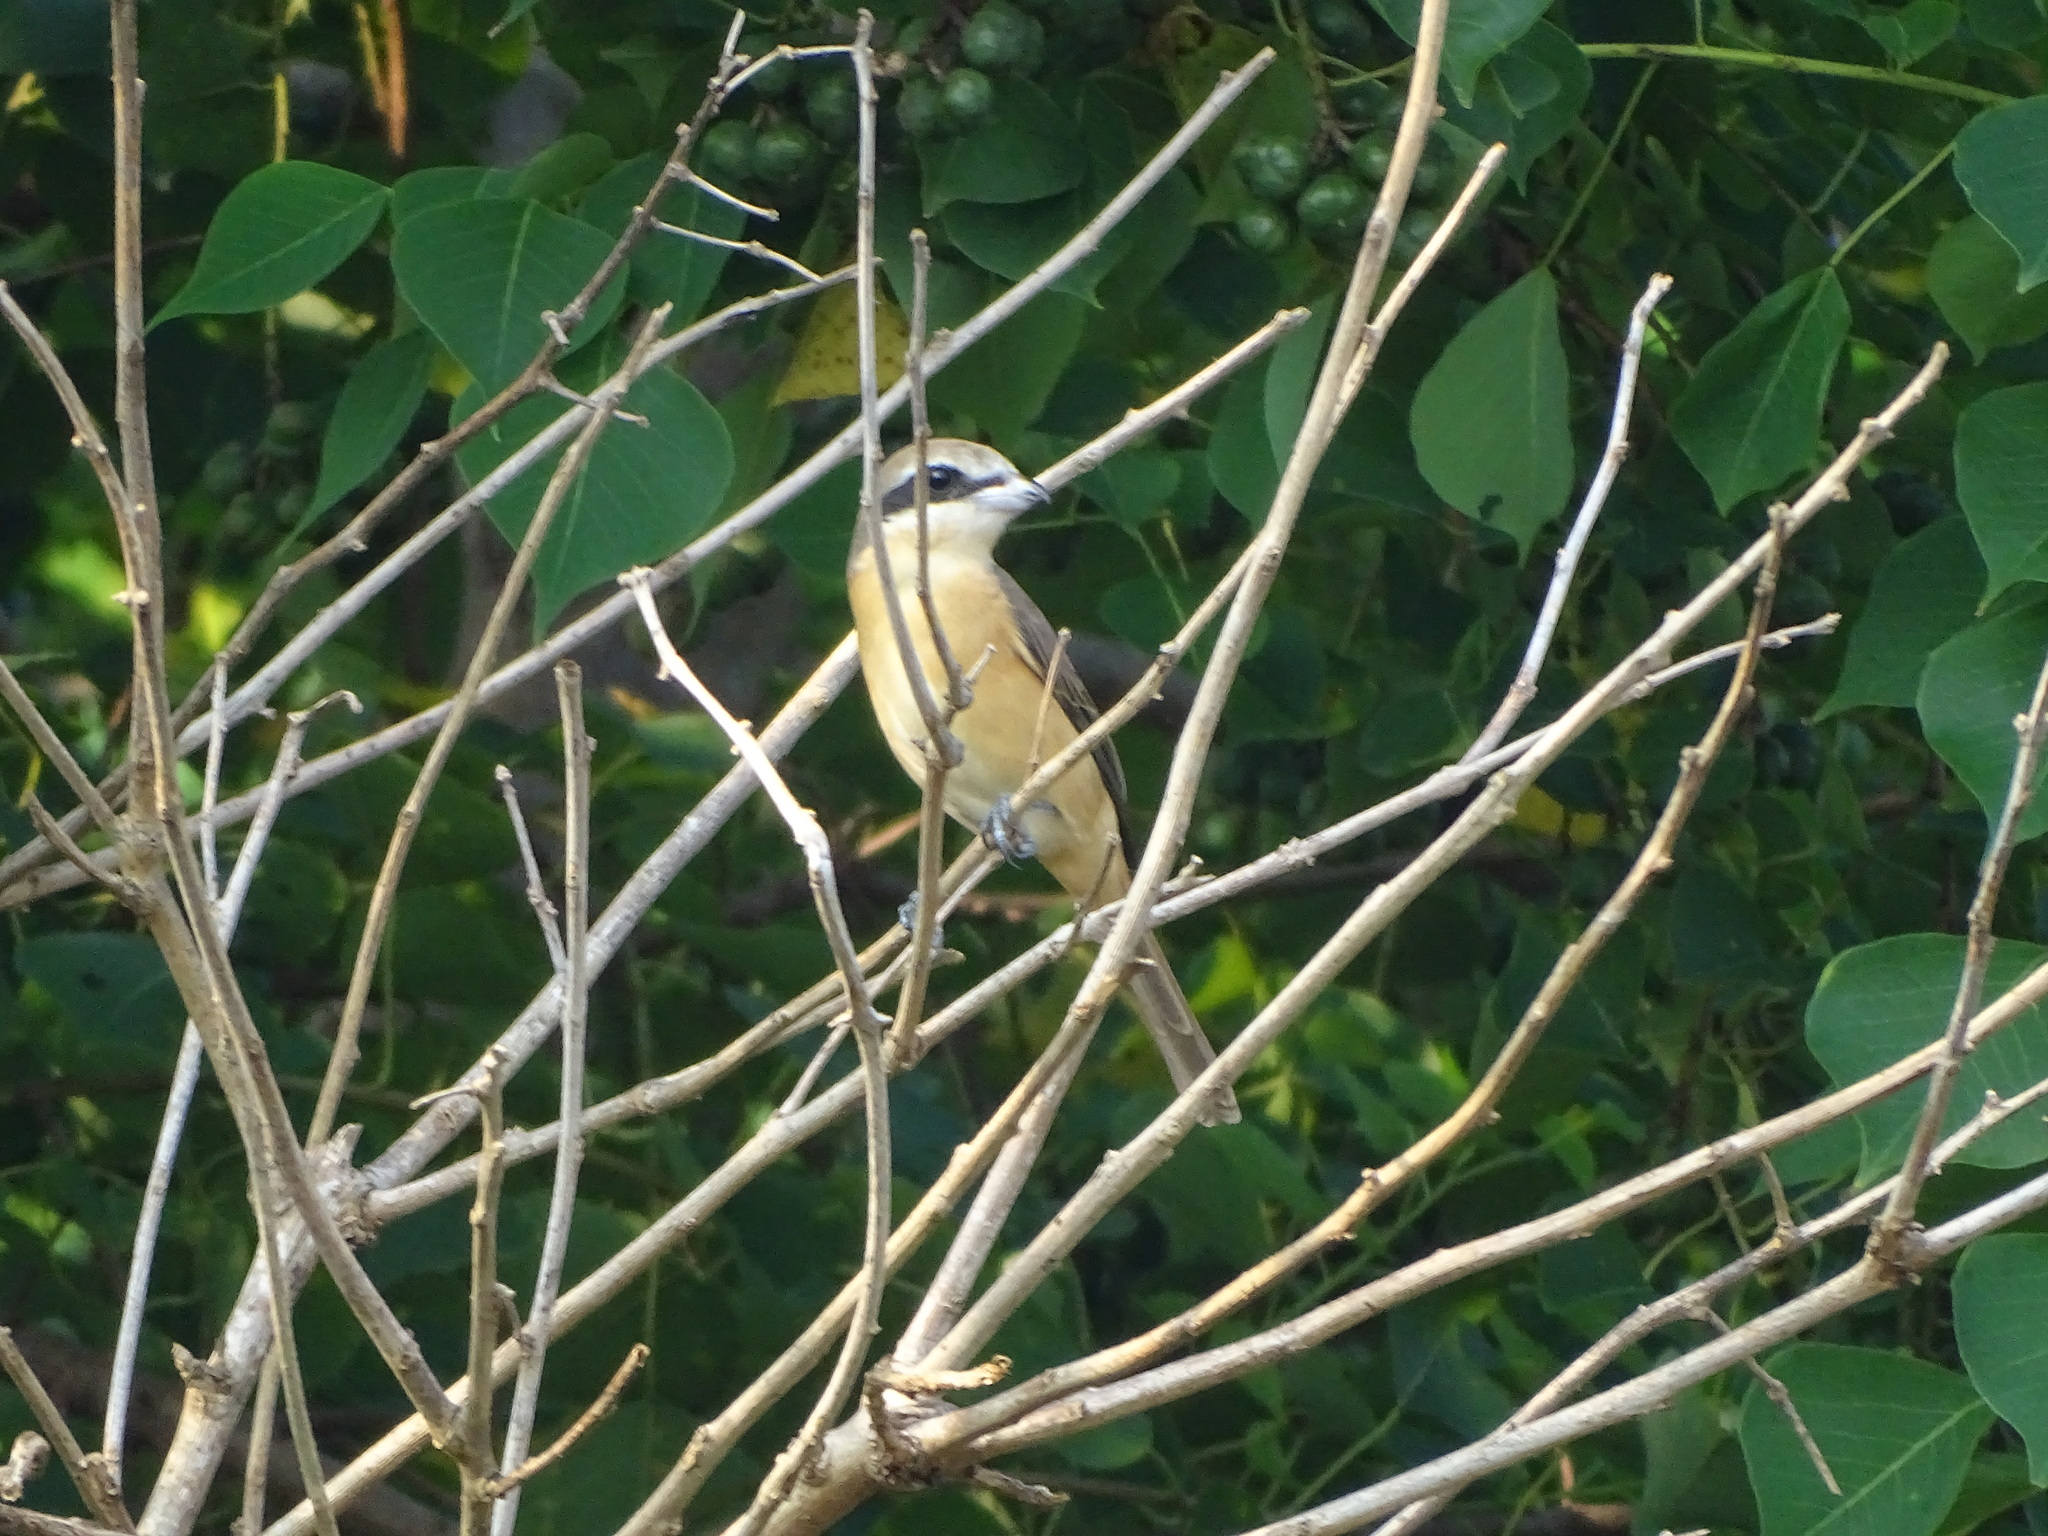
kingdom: Animalia
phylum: Chordata
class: Aves
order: Passeriformes
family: Laniidae
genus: Lanius
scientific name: Lanius cristatus
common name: Brown shrike
